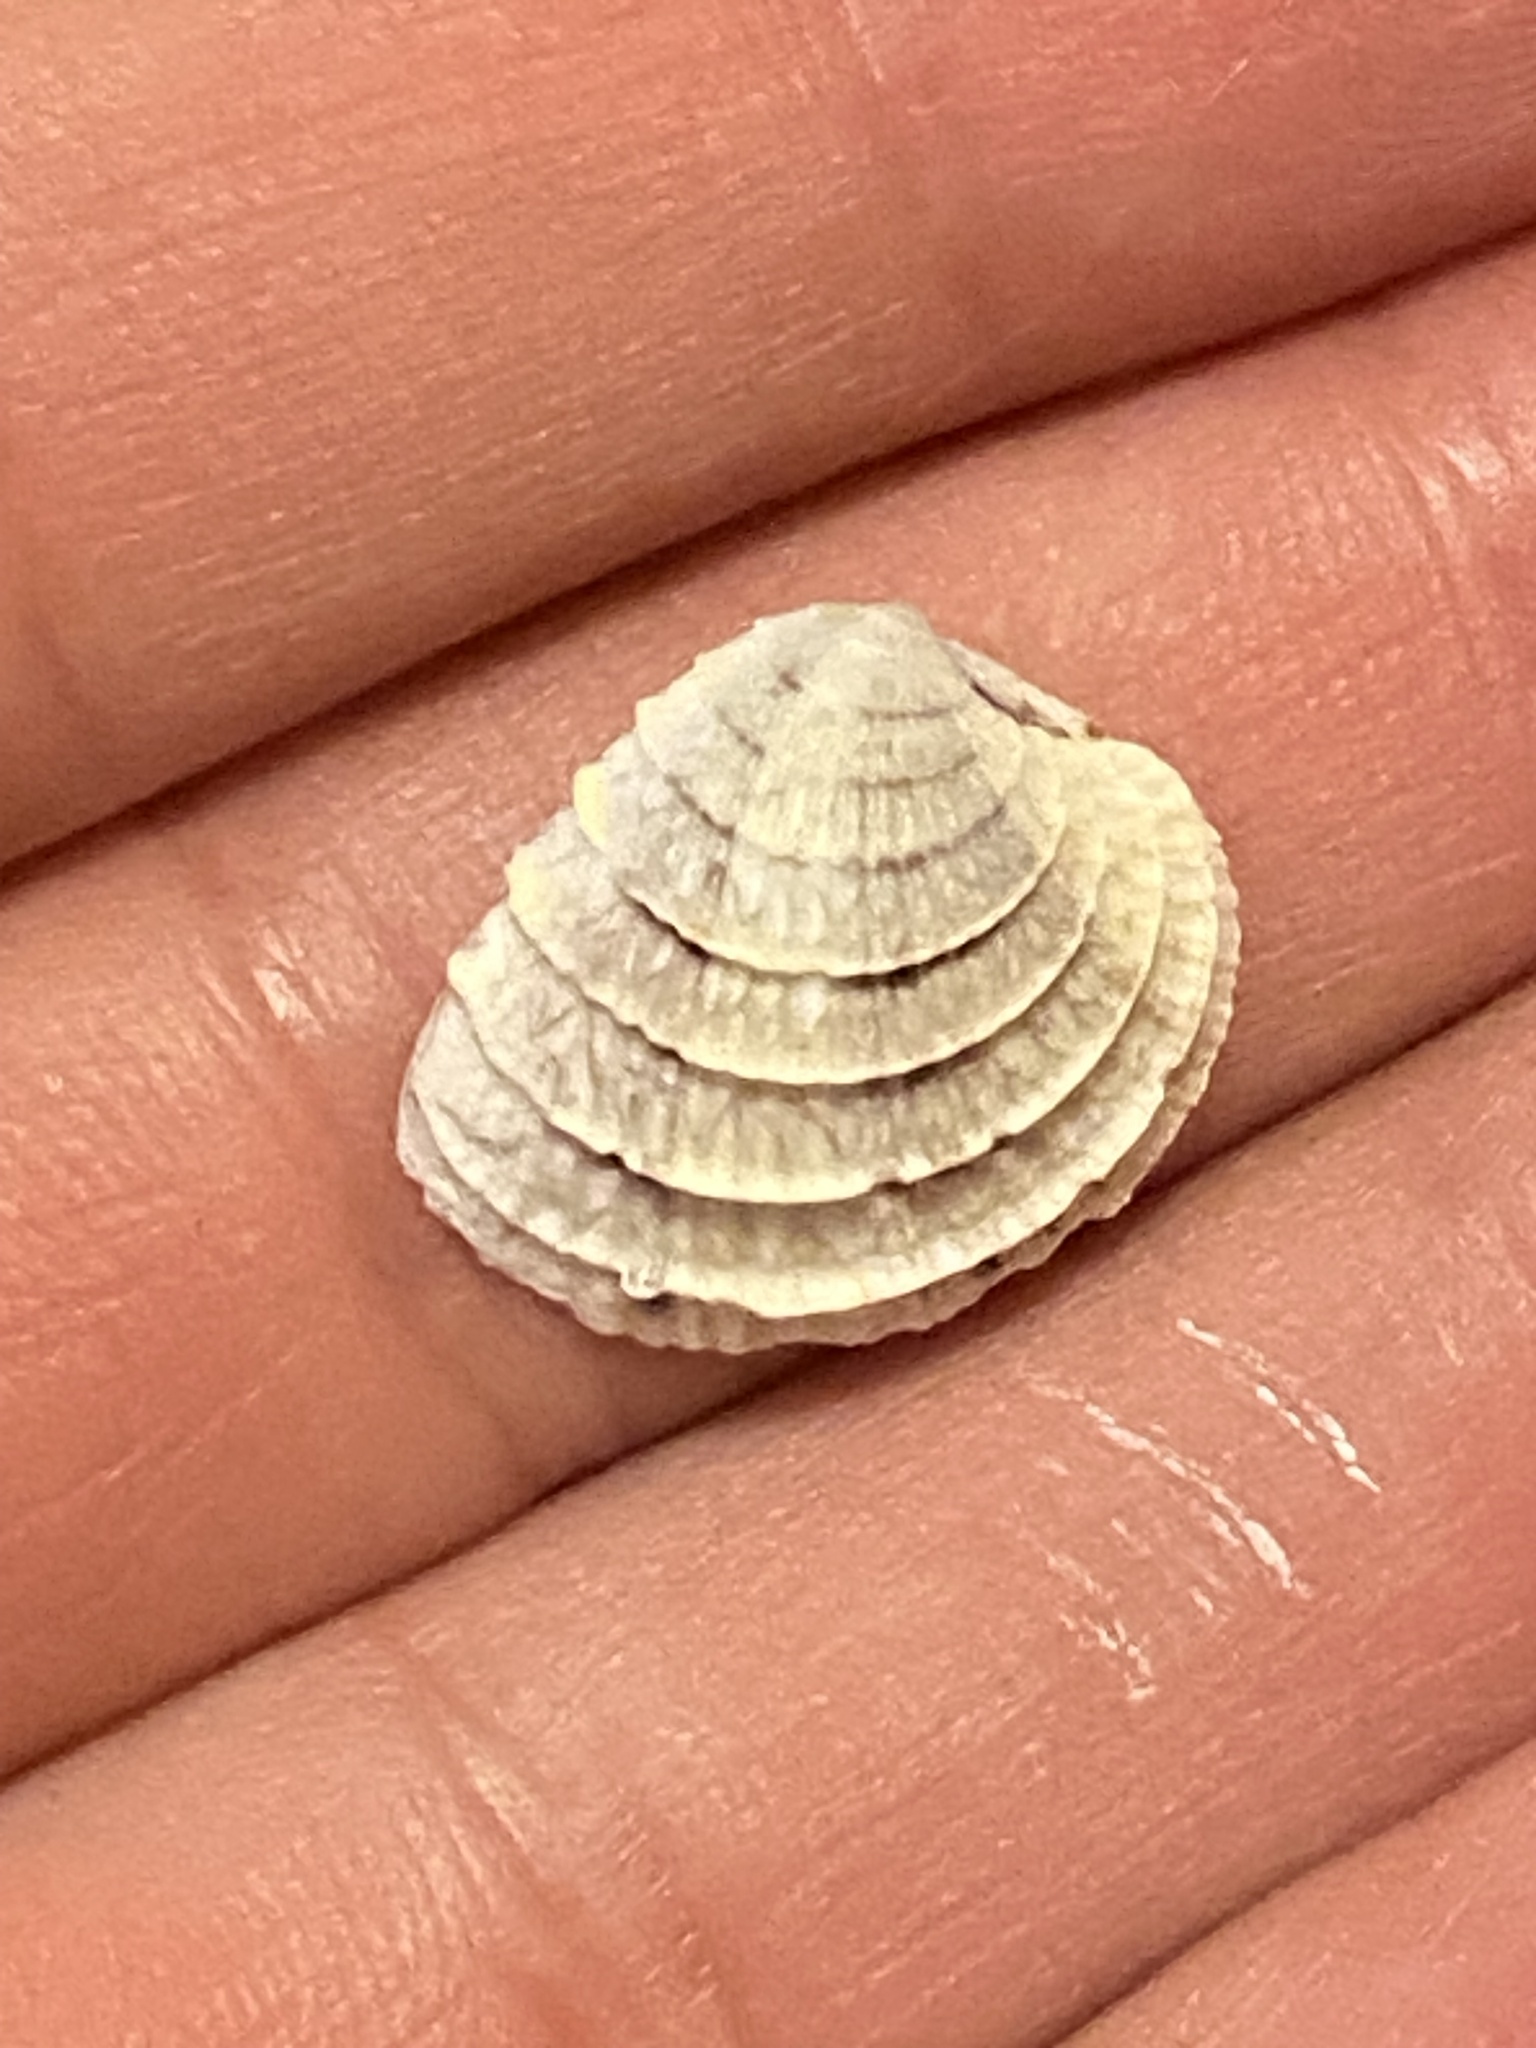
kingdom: Animalia
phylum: Mollusca
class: Bivalvia
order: Venerida
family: Veneridae
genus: Chione
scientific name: Chione elevata
